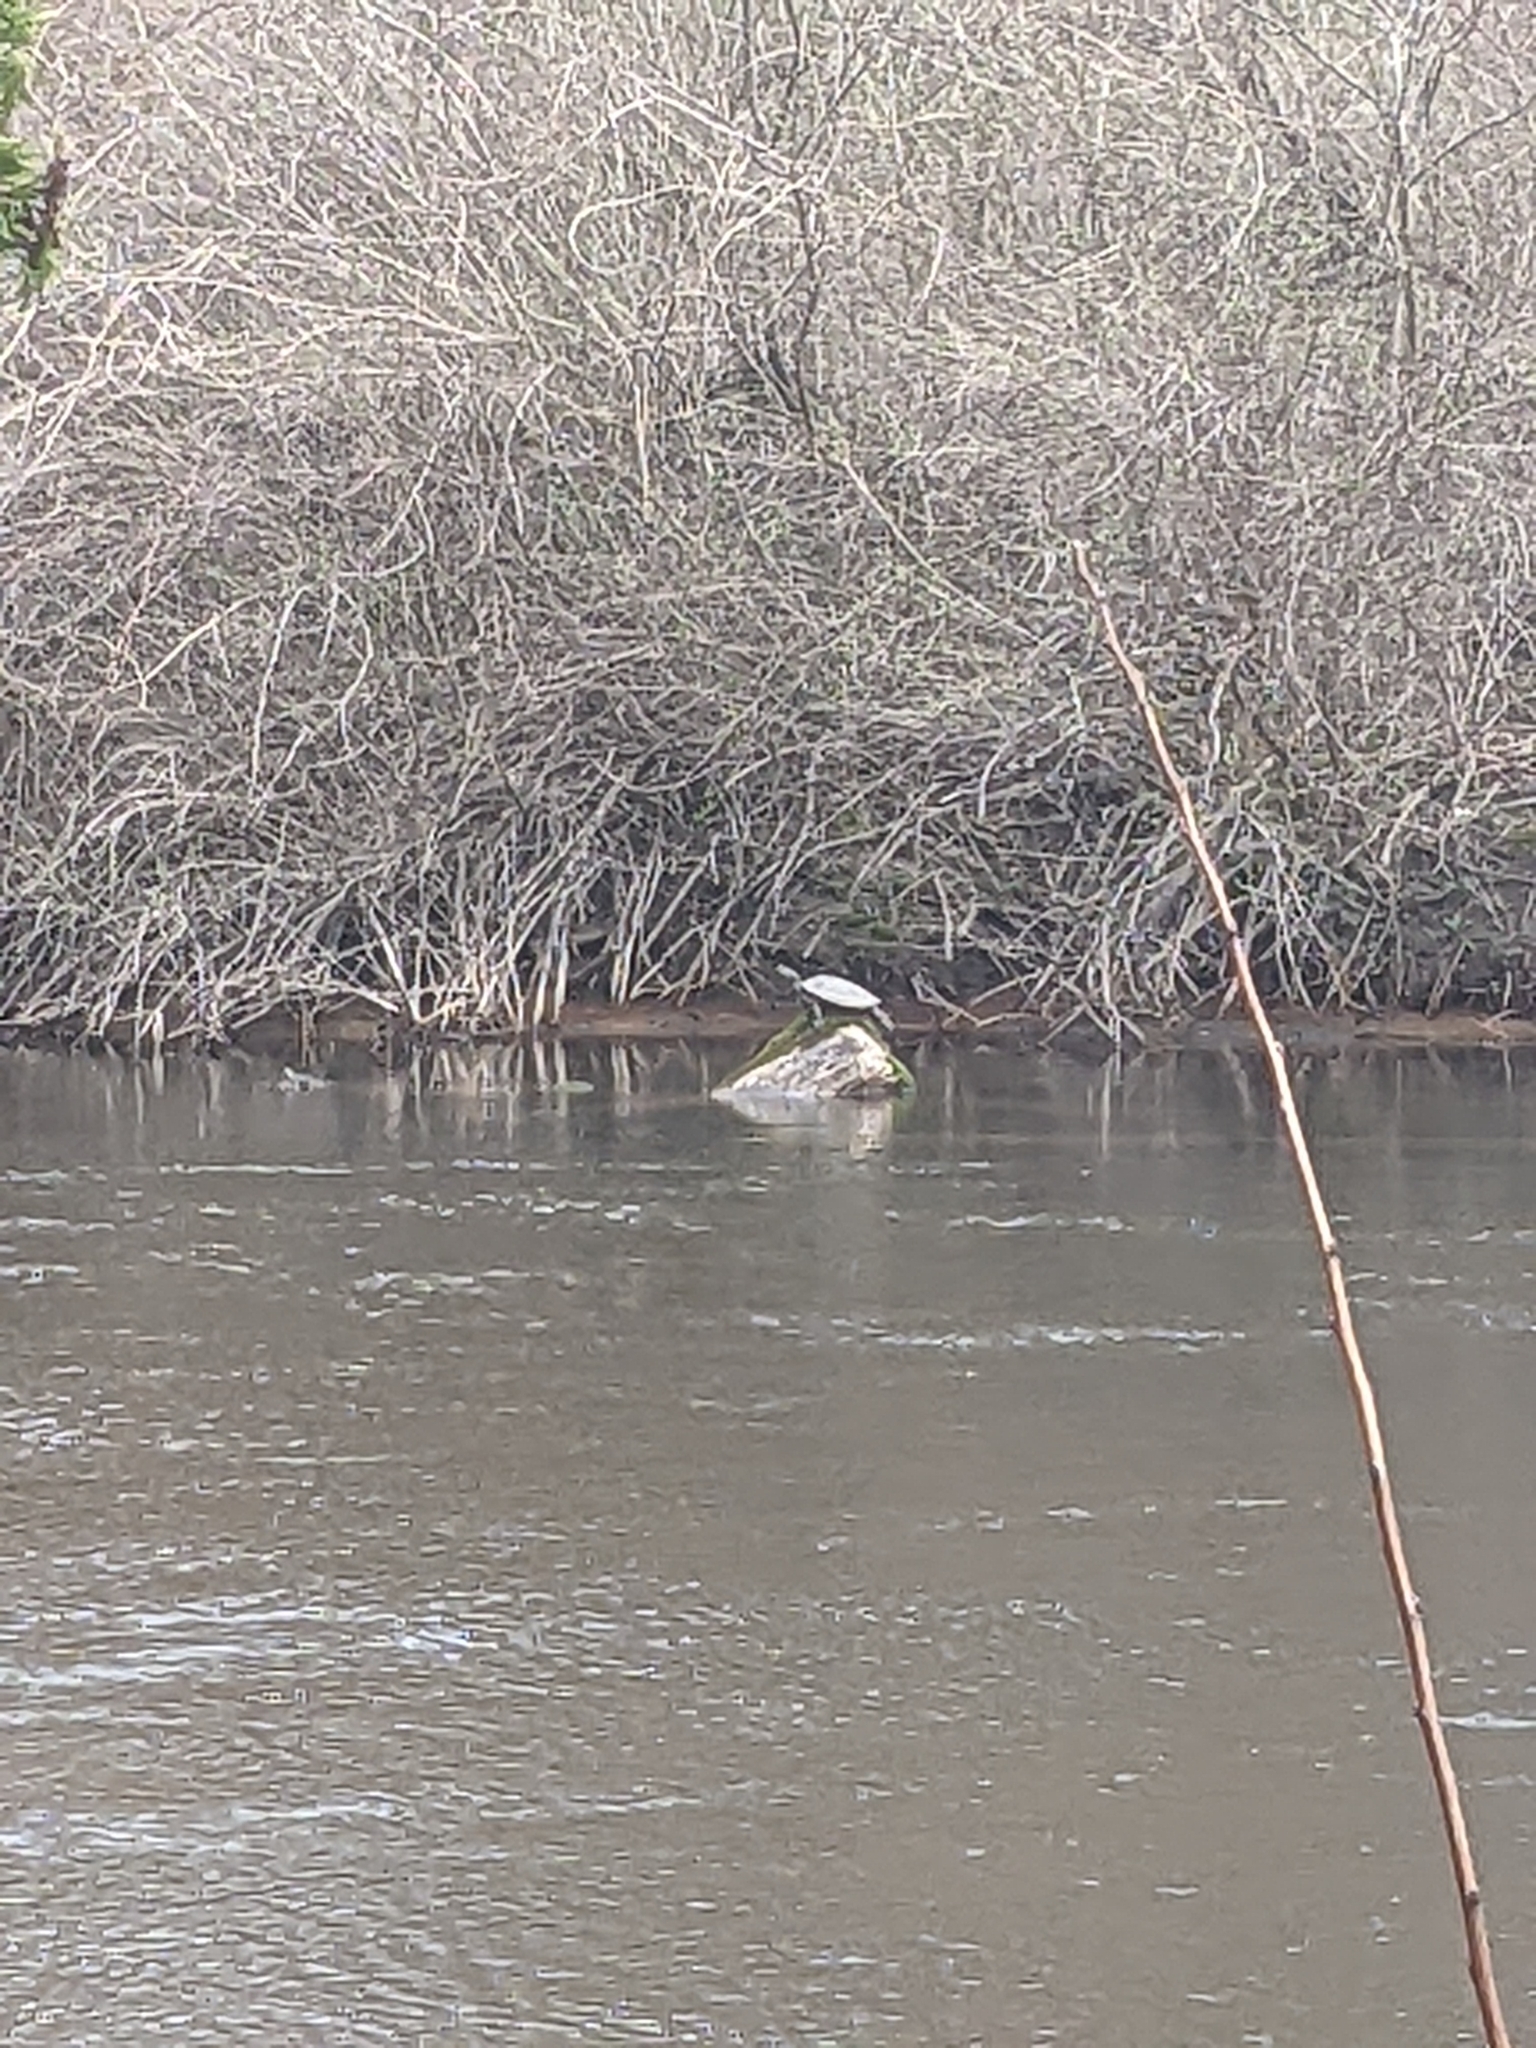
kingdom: Animalia
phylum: Chordata
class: Testudines
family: Emydidae
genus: Graptemys
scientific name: Graptemys geographica
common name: Common map turtle
